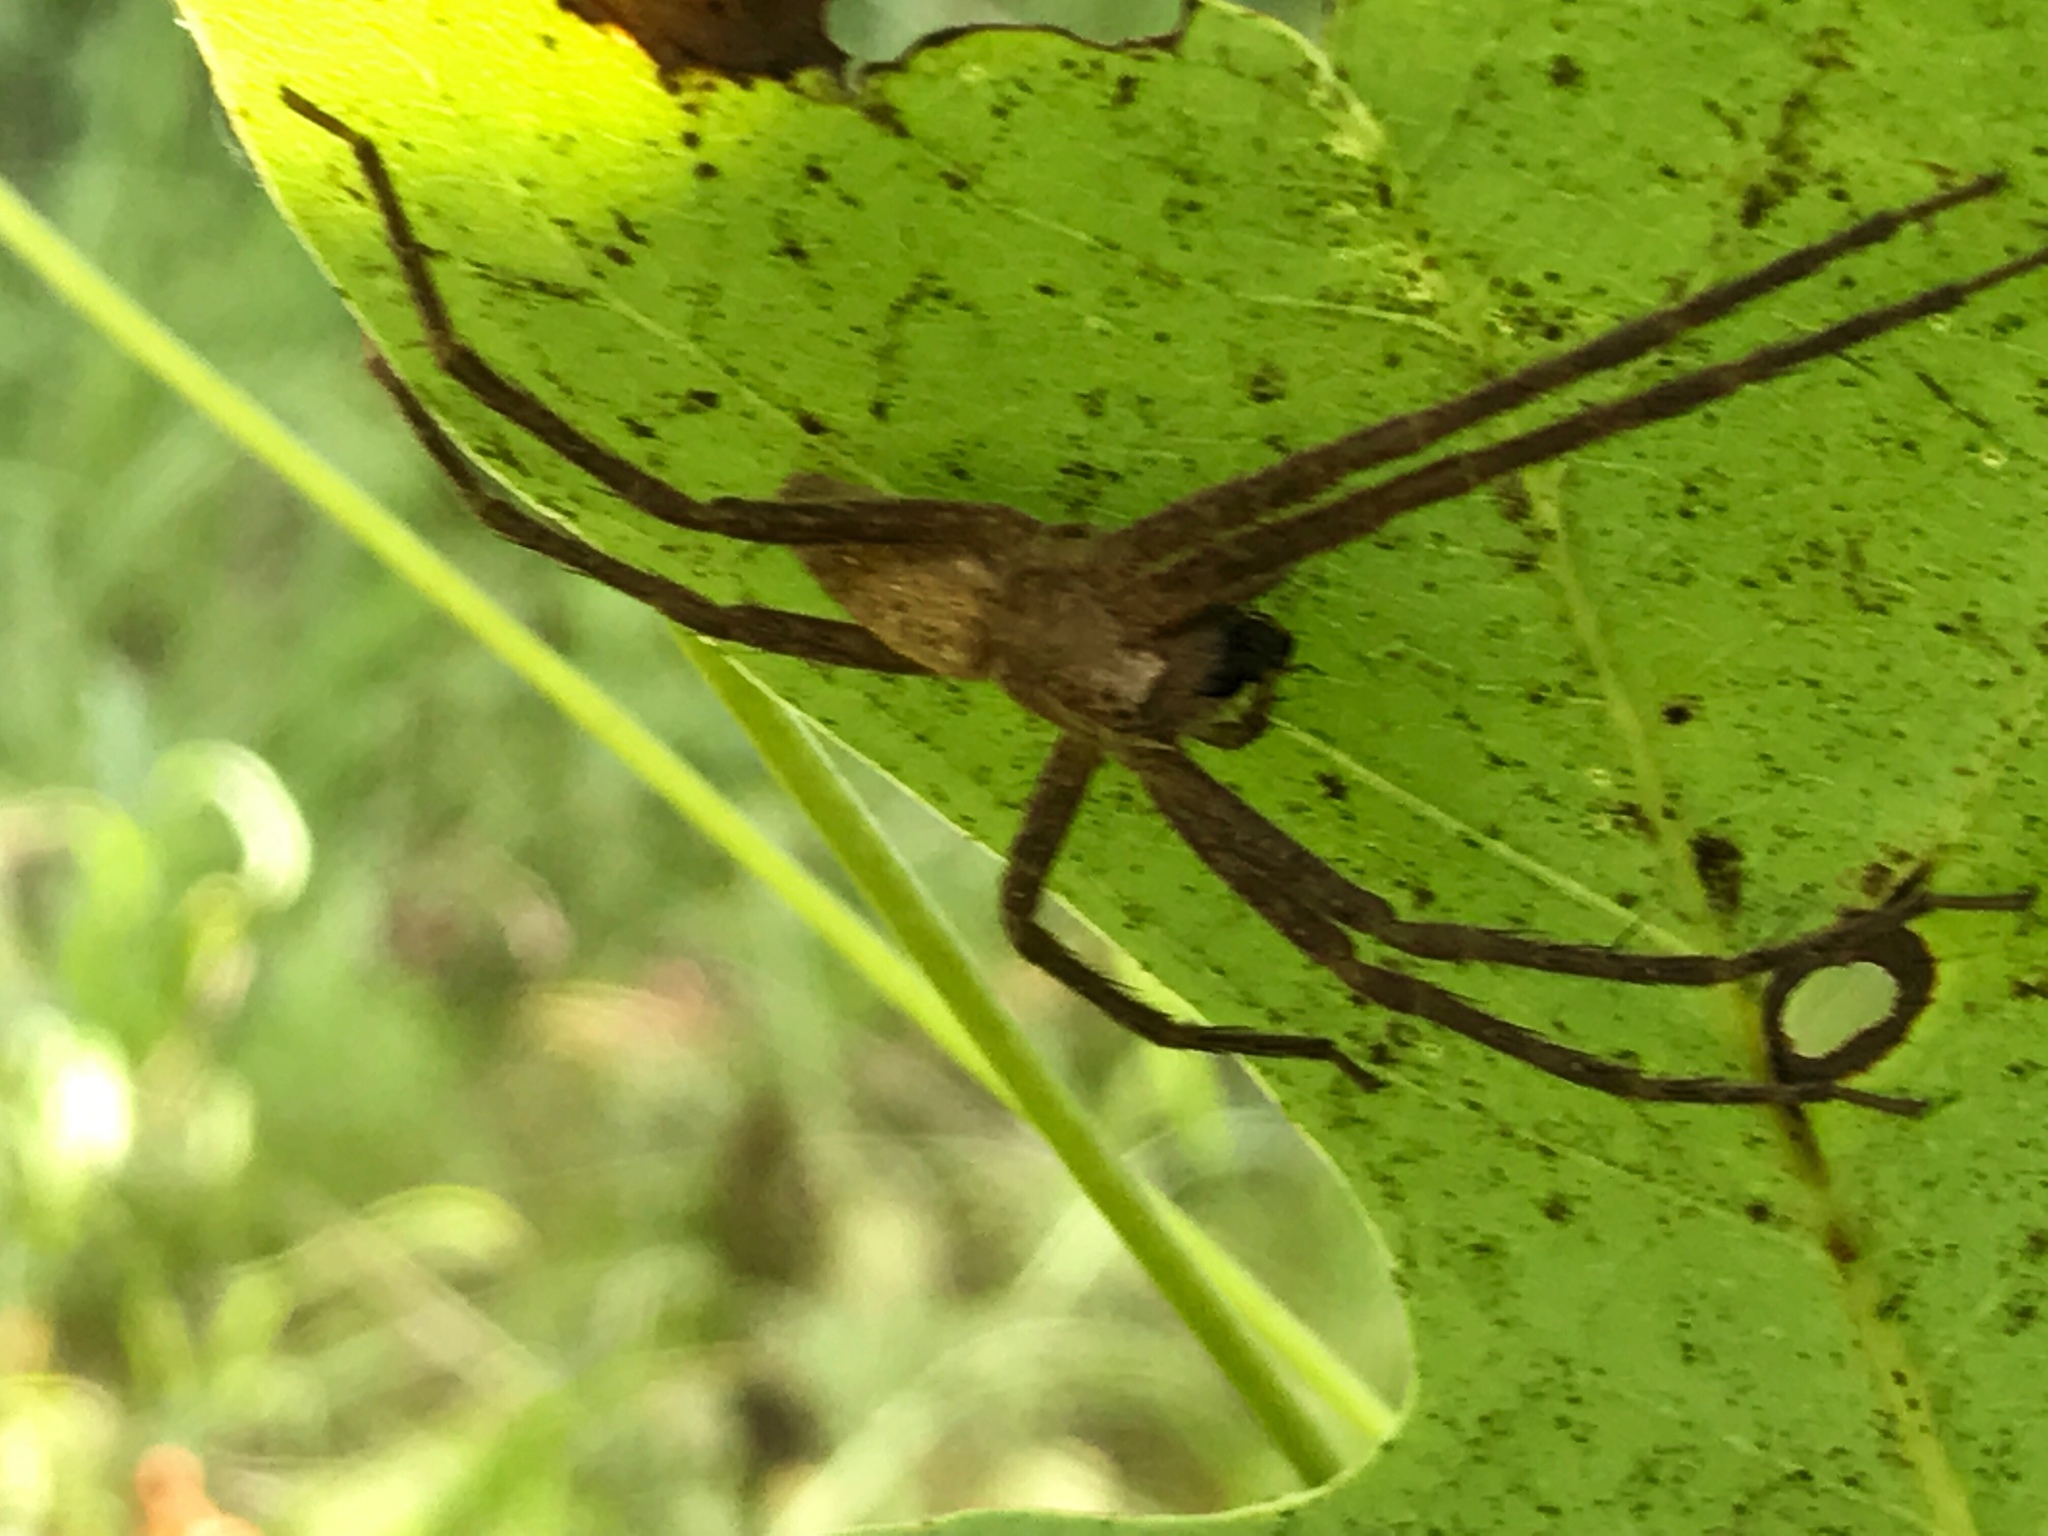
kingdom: Animalia
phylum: Arthropoda
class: Arachnida
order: Araneae
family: Pisauridae
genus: Pisaurina
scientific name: Pisaurina mira
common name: American nursery web spider
